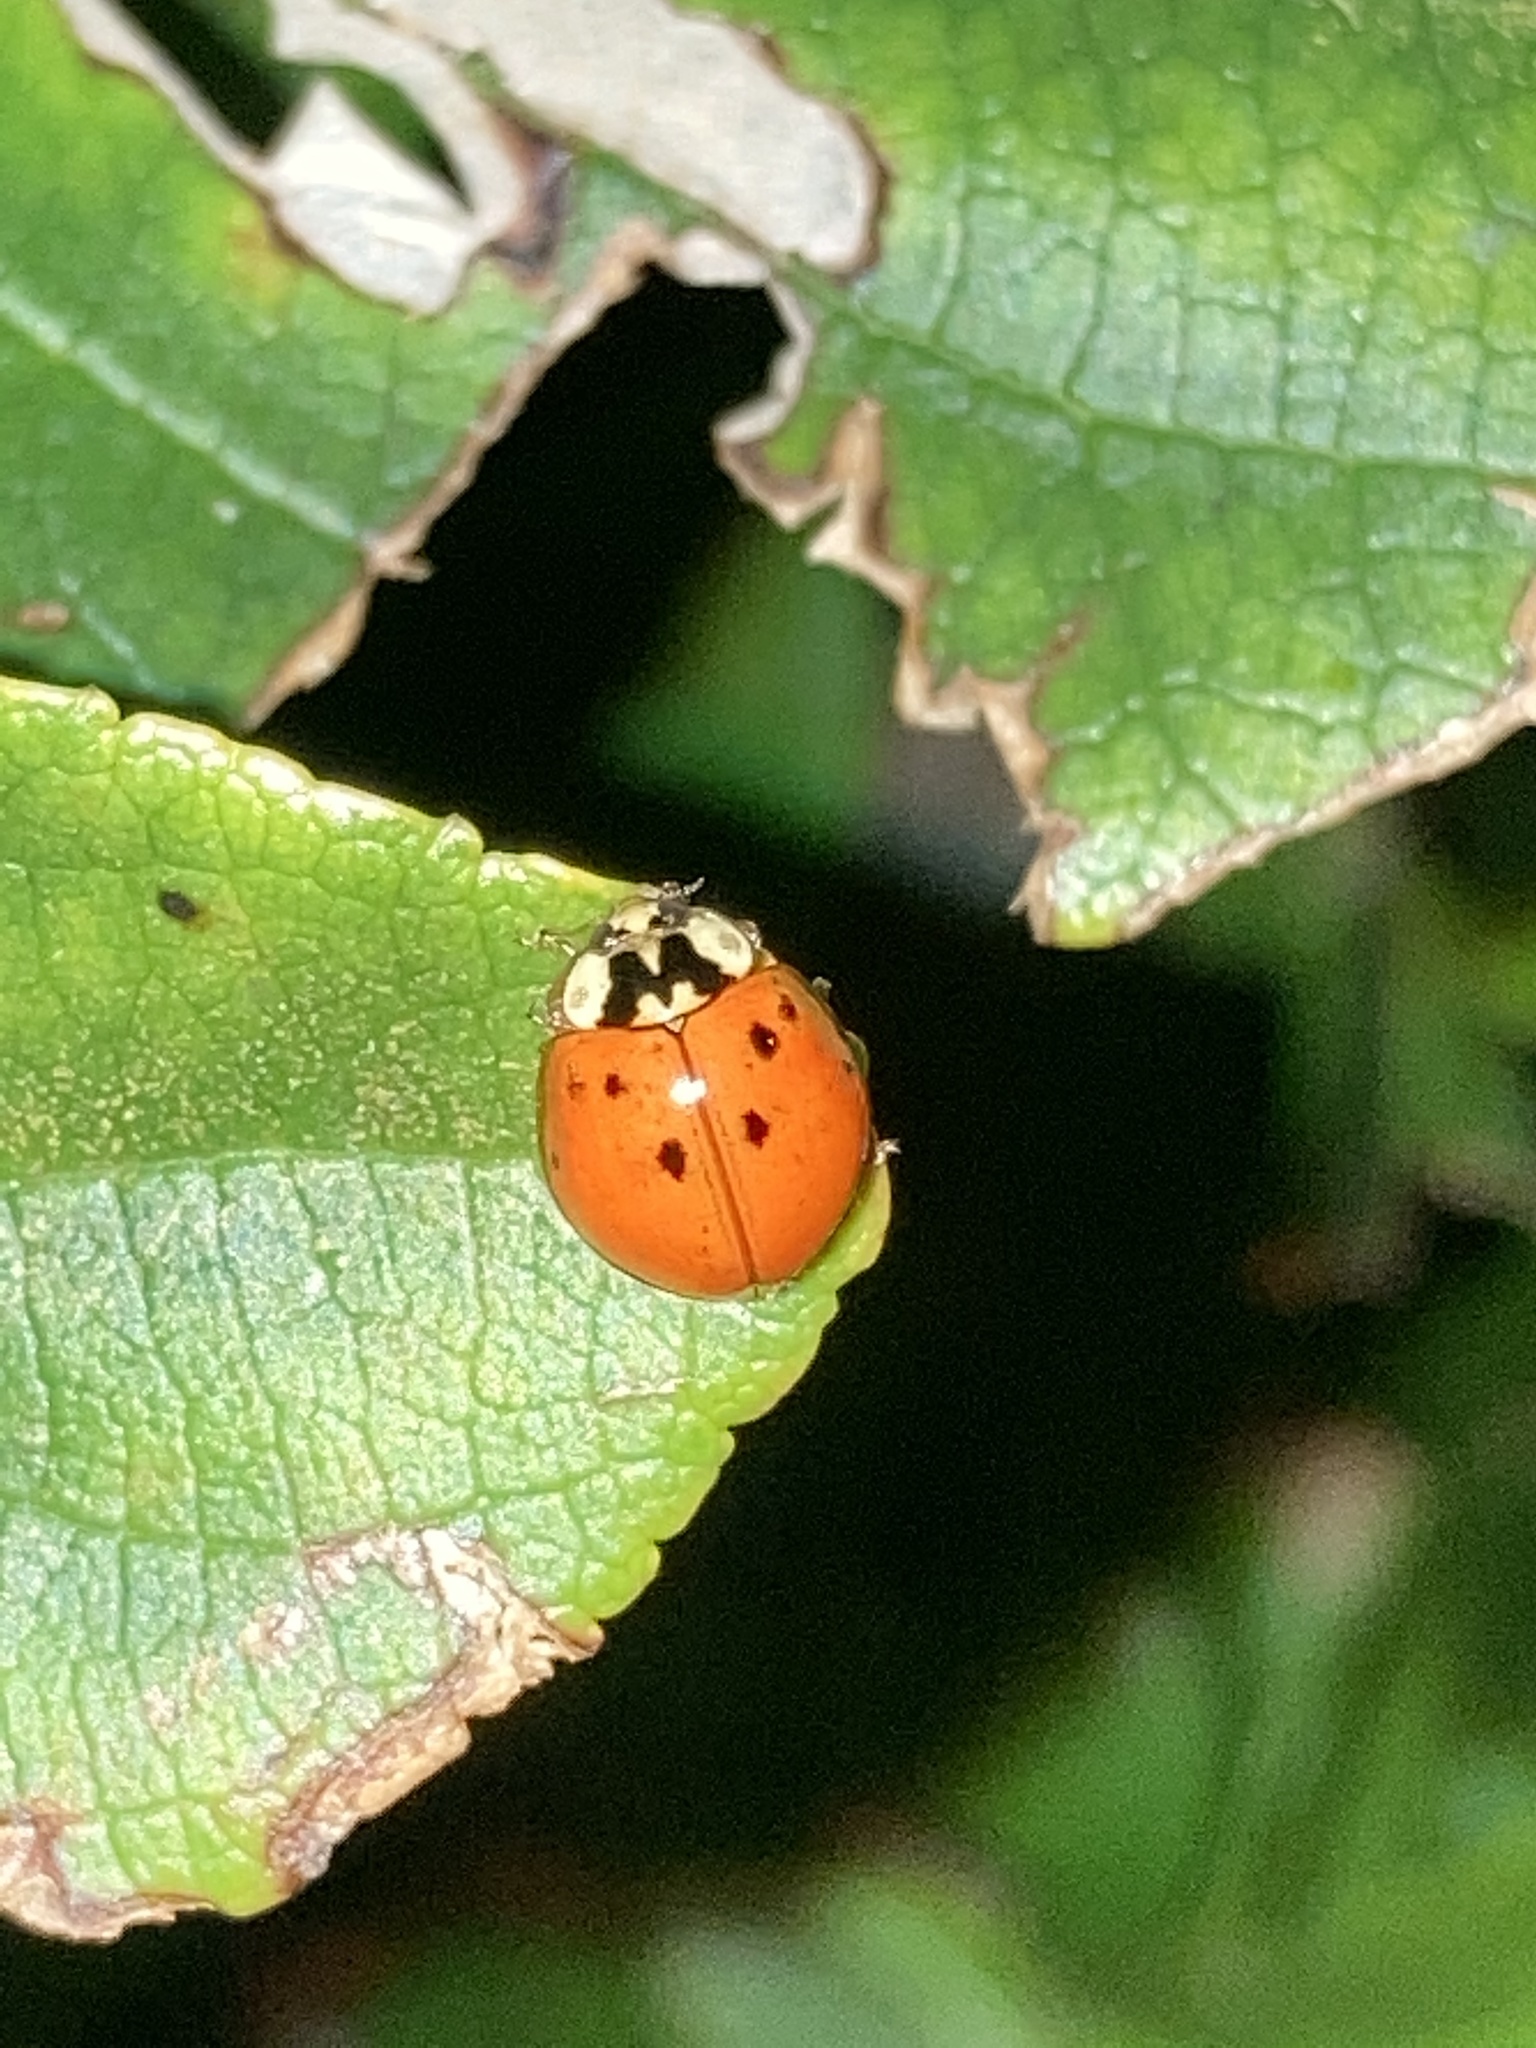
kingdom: Animalia
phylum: Arthropoda
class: Insecta
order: Coleoptera
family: Coccinellidae
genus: Harmonia
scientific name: Harmonia axyridis
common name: Harlequin ladybird
